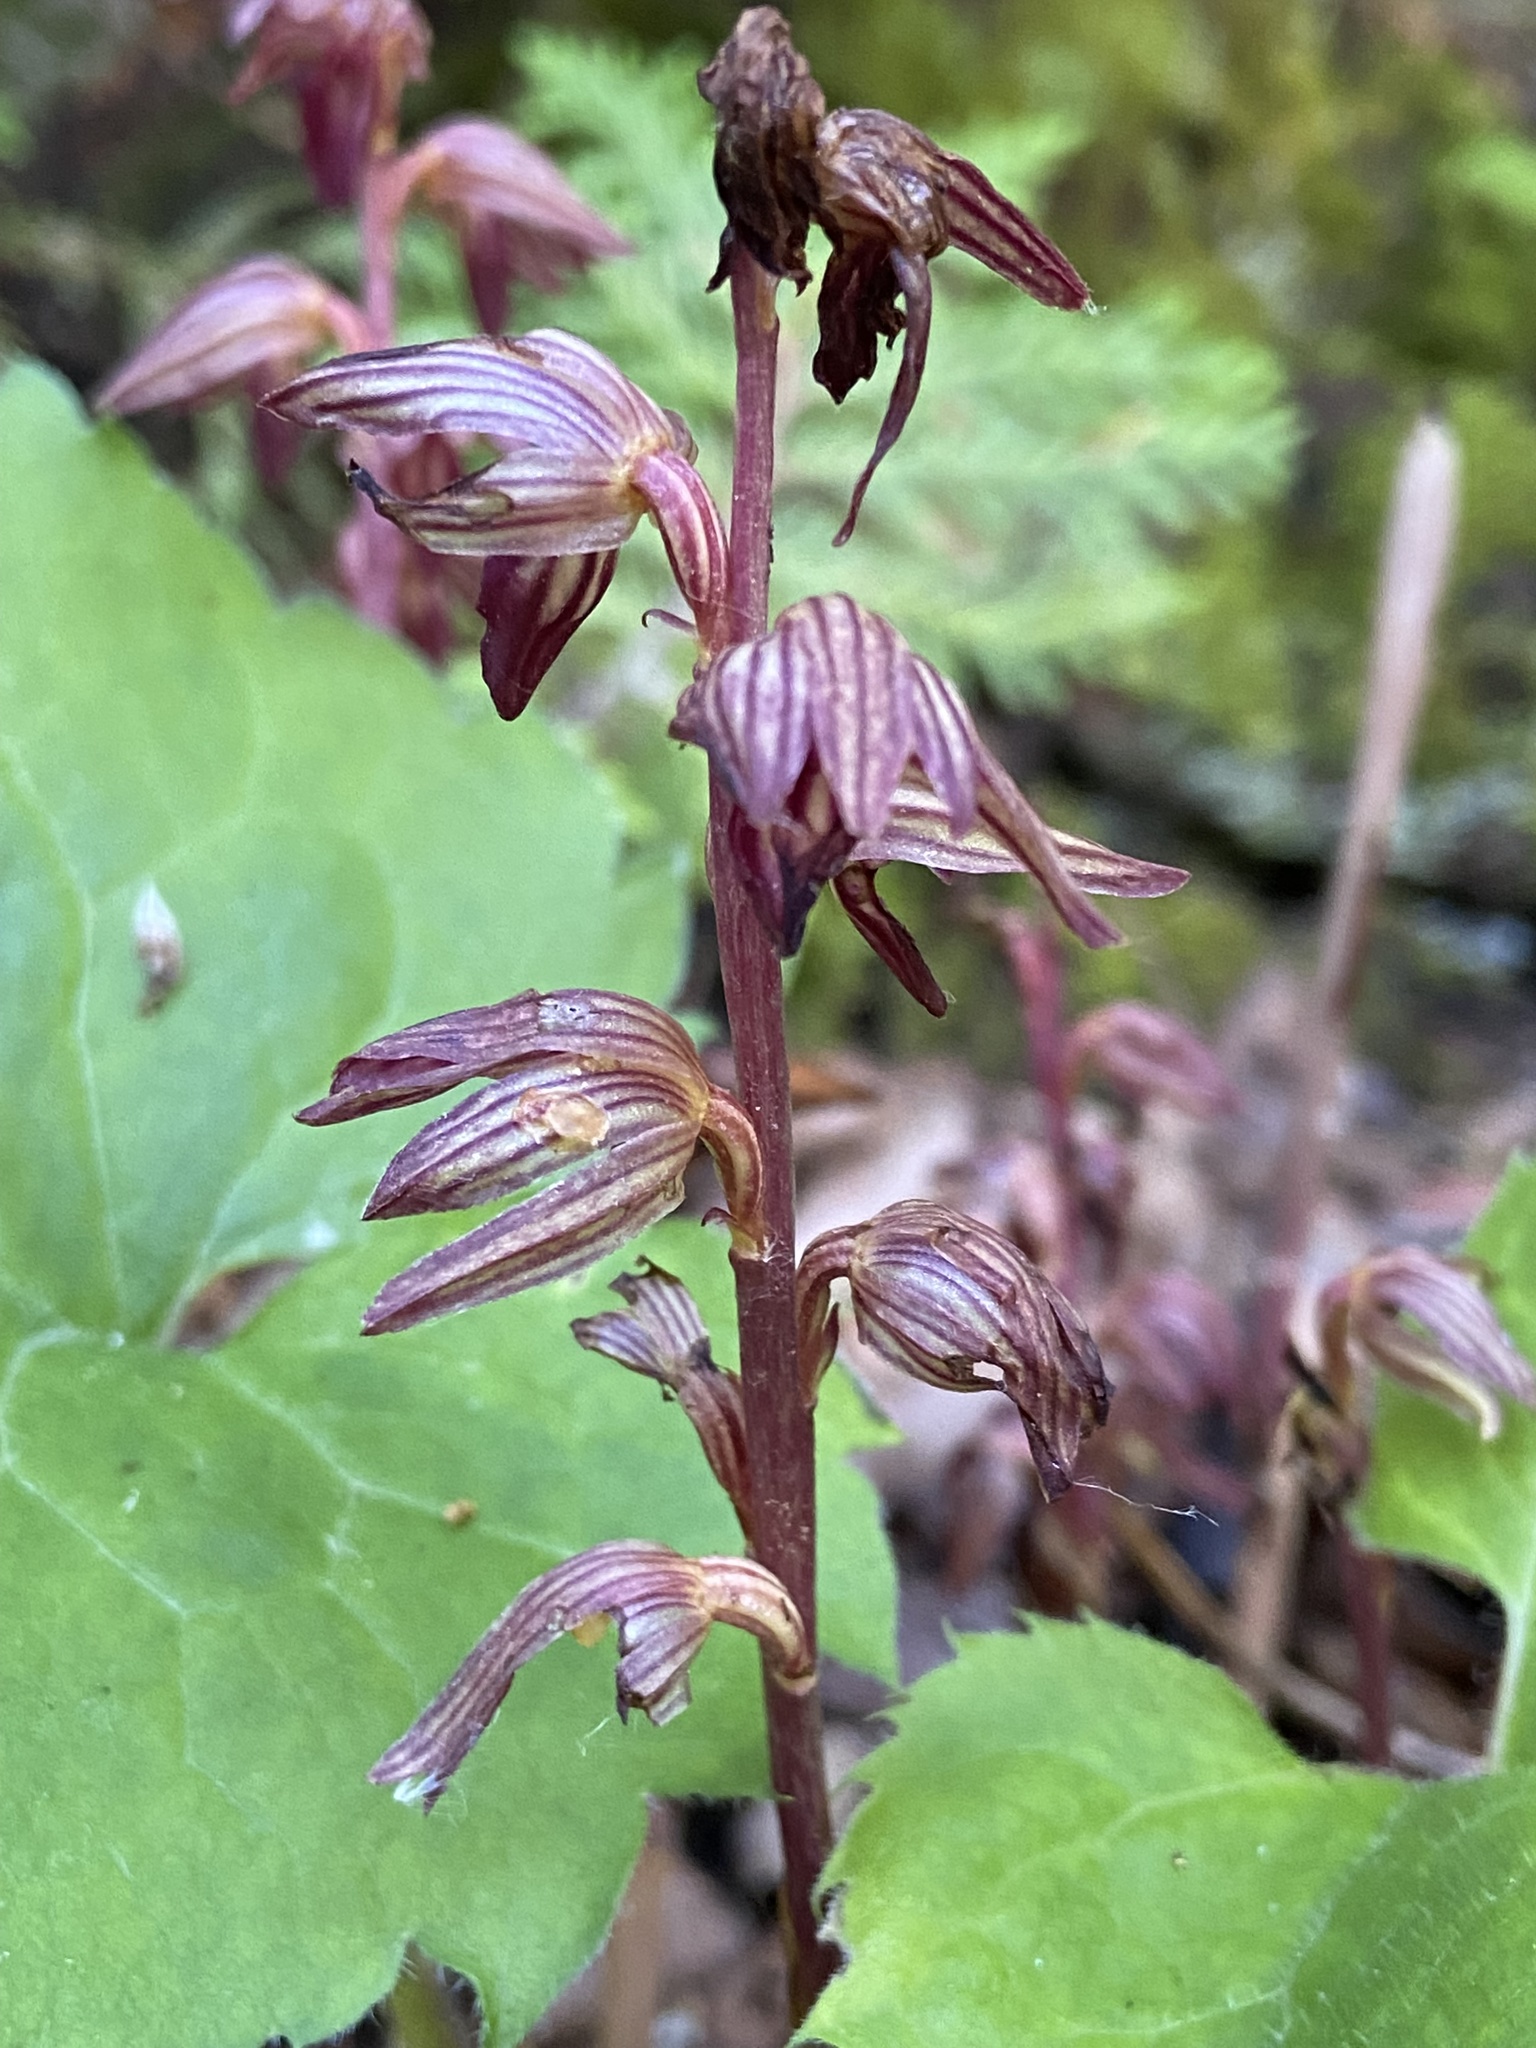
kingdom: Plantae
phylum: Tracheophyta
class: Liliopsida
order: Asparagales
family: Orchidaceae
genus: Corallorhiza
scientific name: Corallorhiza striata
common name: Hooded coralroot
